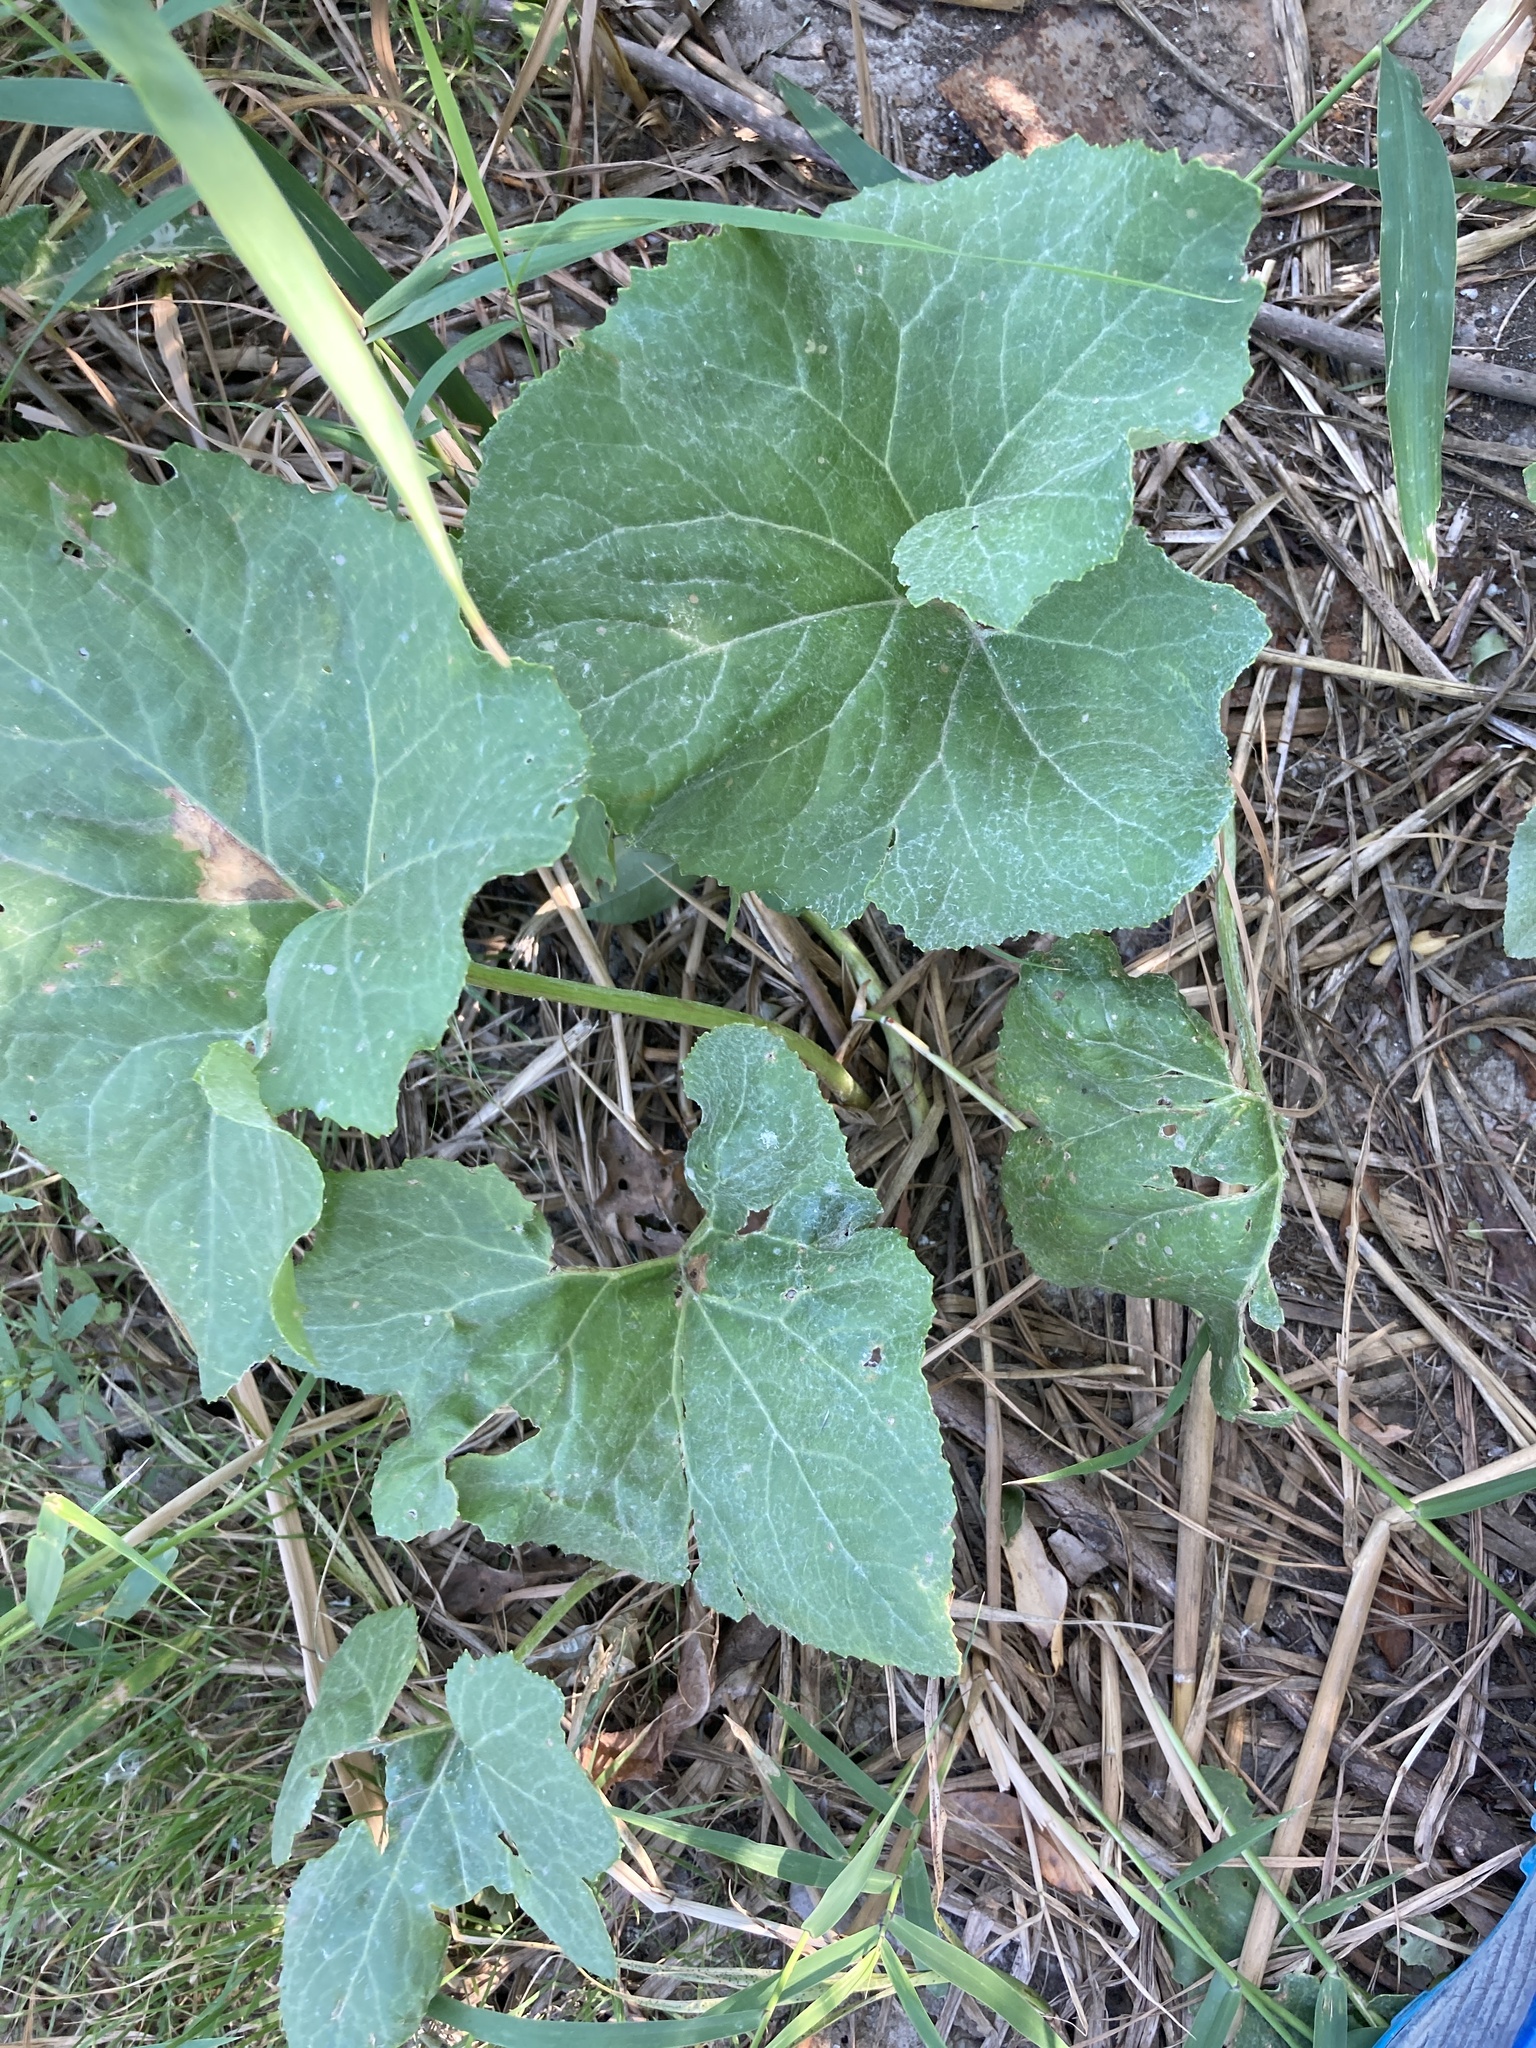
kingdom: Plantae
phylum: Tracheophyta
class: Magnoliopsida
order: Asterales
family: Asteraceae
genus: Petasites
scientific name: Petasites spurius
